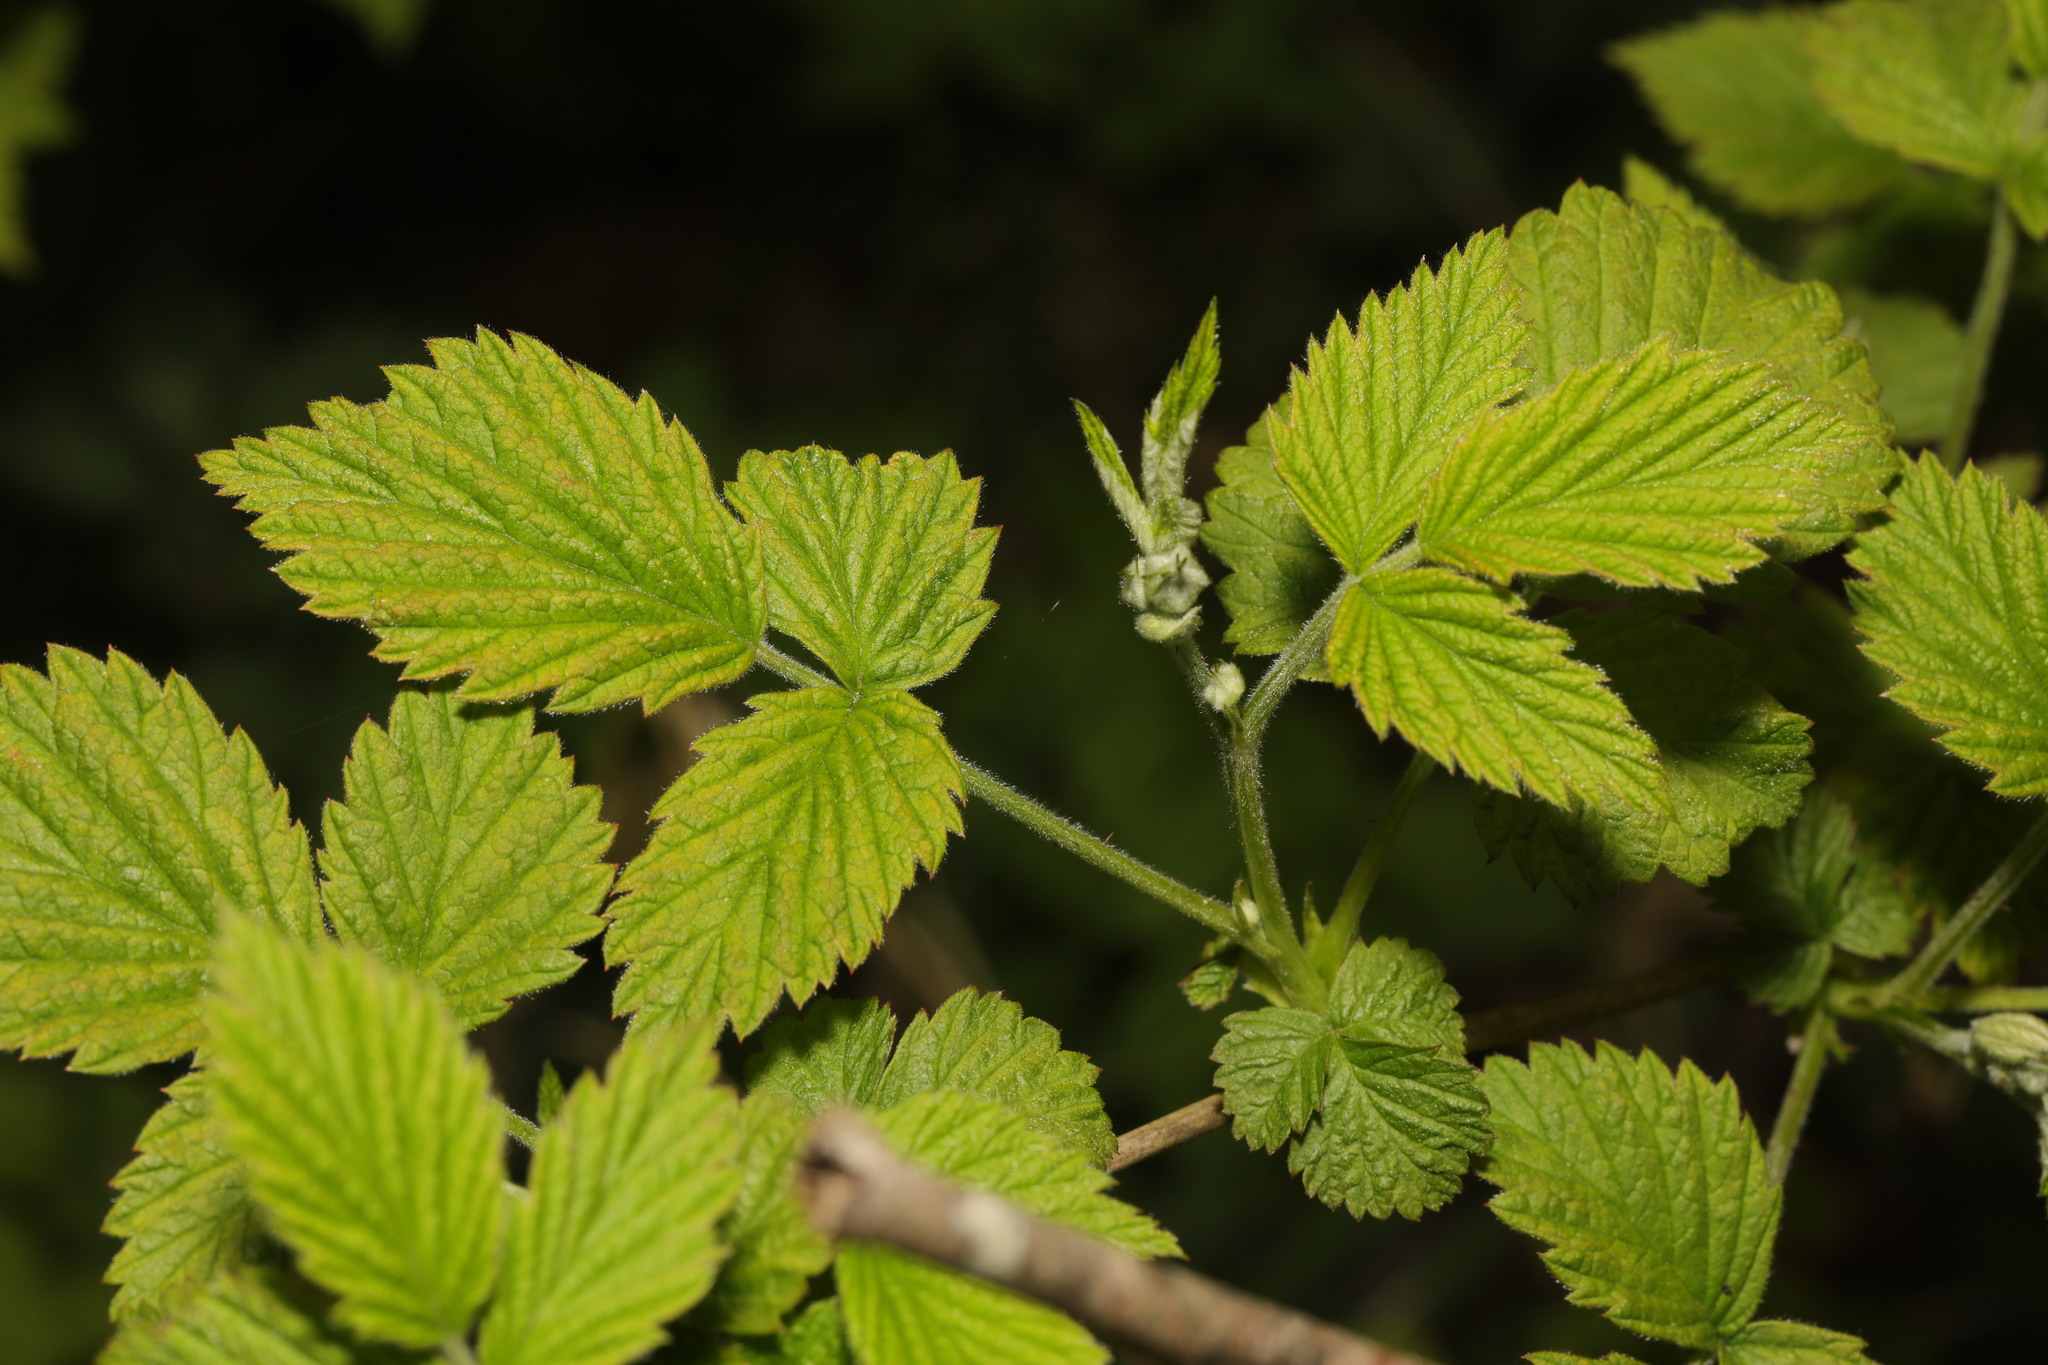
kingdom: Plantae
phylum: Tracheophyta
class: Magnoliopsida
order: Rosales
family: Rosaceae
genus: Rubus
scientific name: Rubus idaeus
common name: Raspberry
